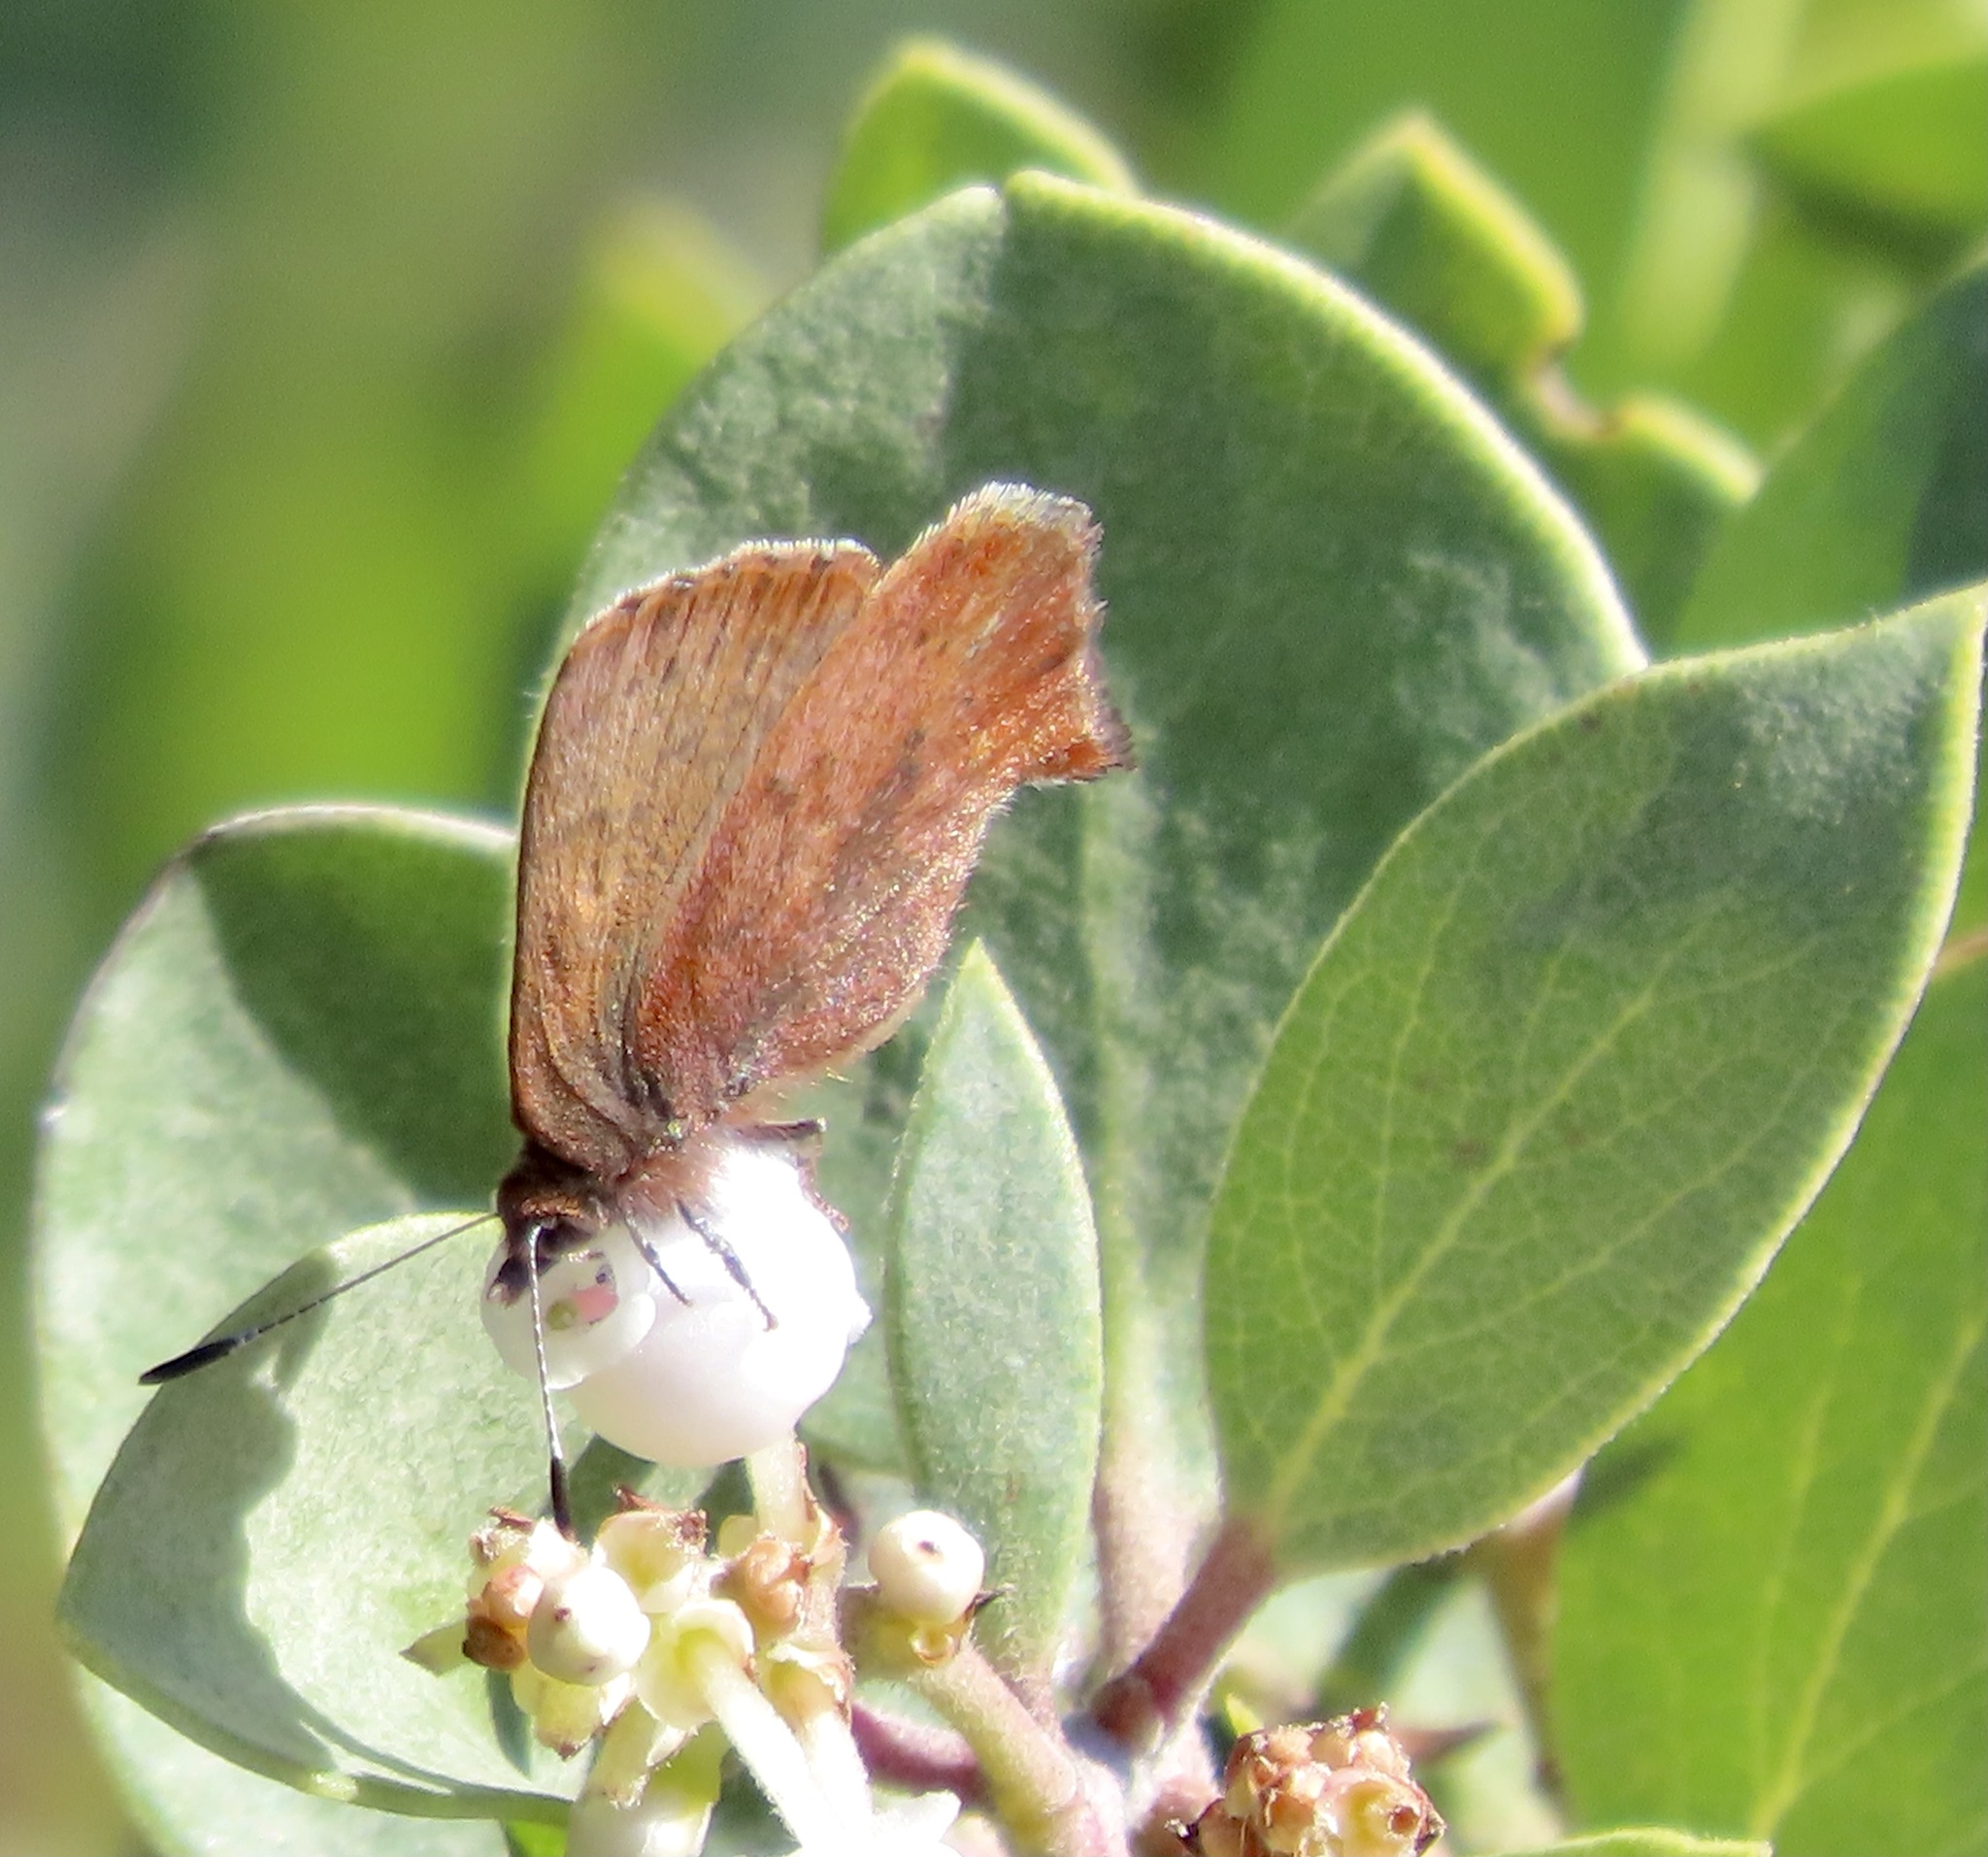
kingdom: Animalia
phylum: Arthropoda
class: Insecta
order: Lepidoptera
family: Lycaenidae
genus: Incisalia
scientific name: Incisalia irioides
